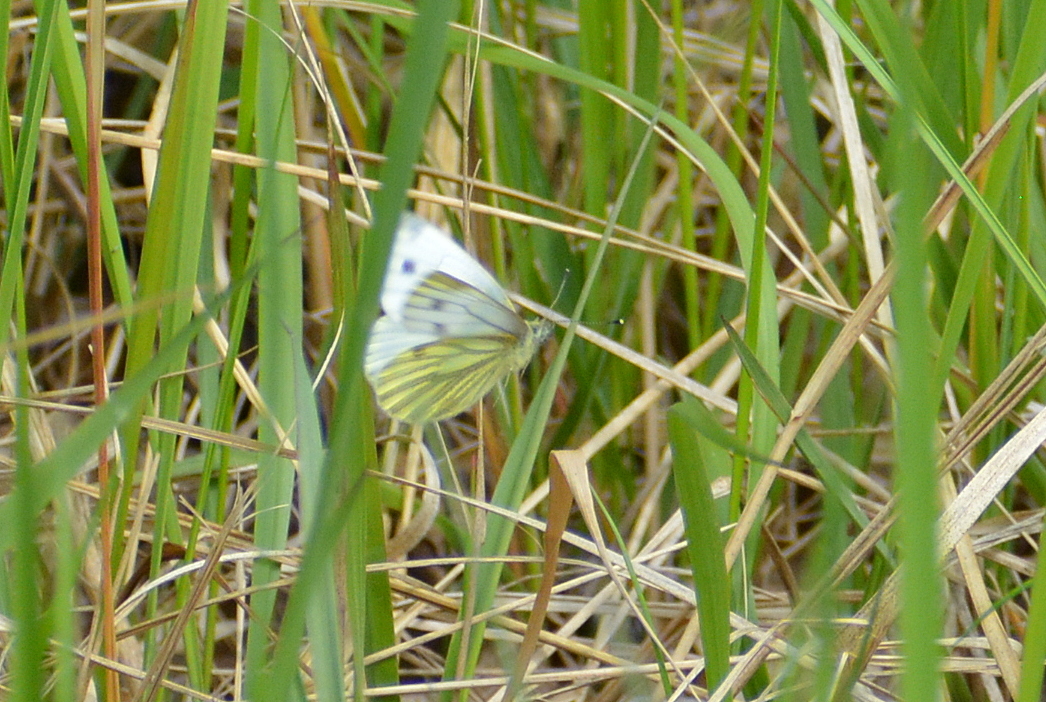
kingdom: Animalia
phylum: Arthropoda
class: Insecta
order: Lepidoptera
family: Pieridae
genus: Pieris
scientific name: Pieris napi
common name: Green-veined white
